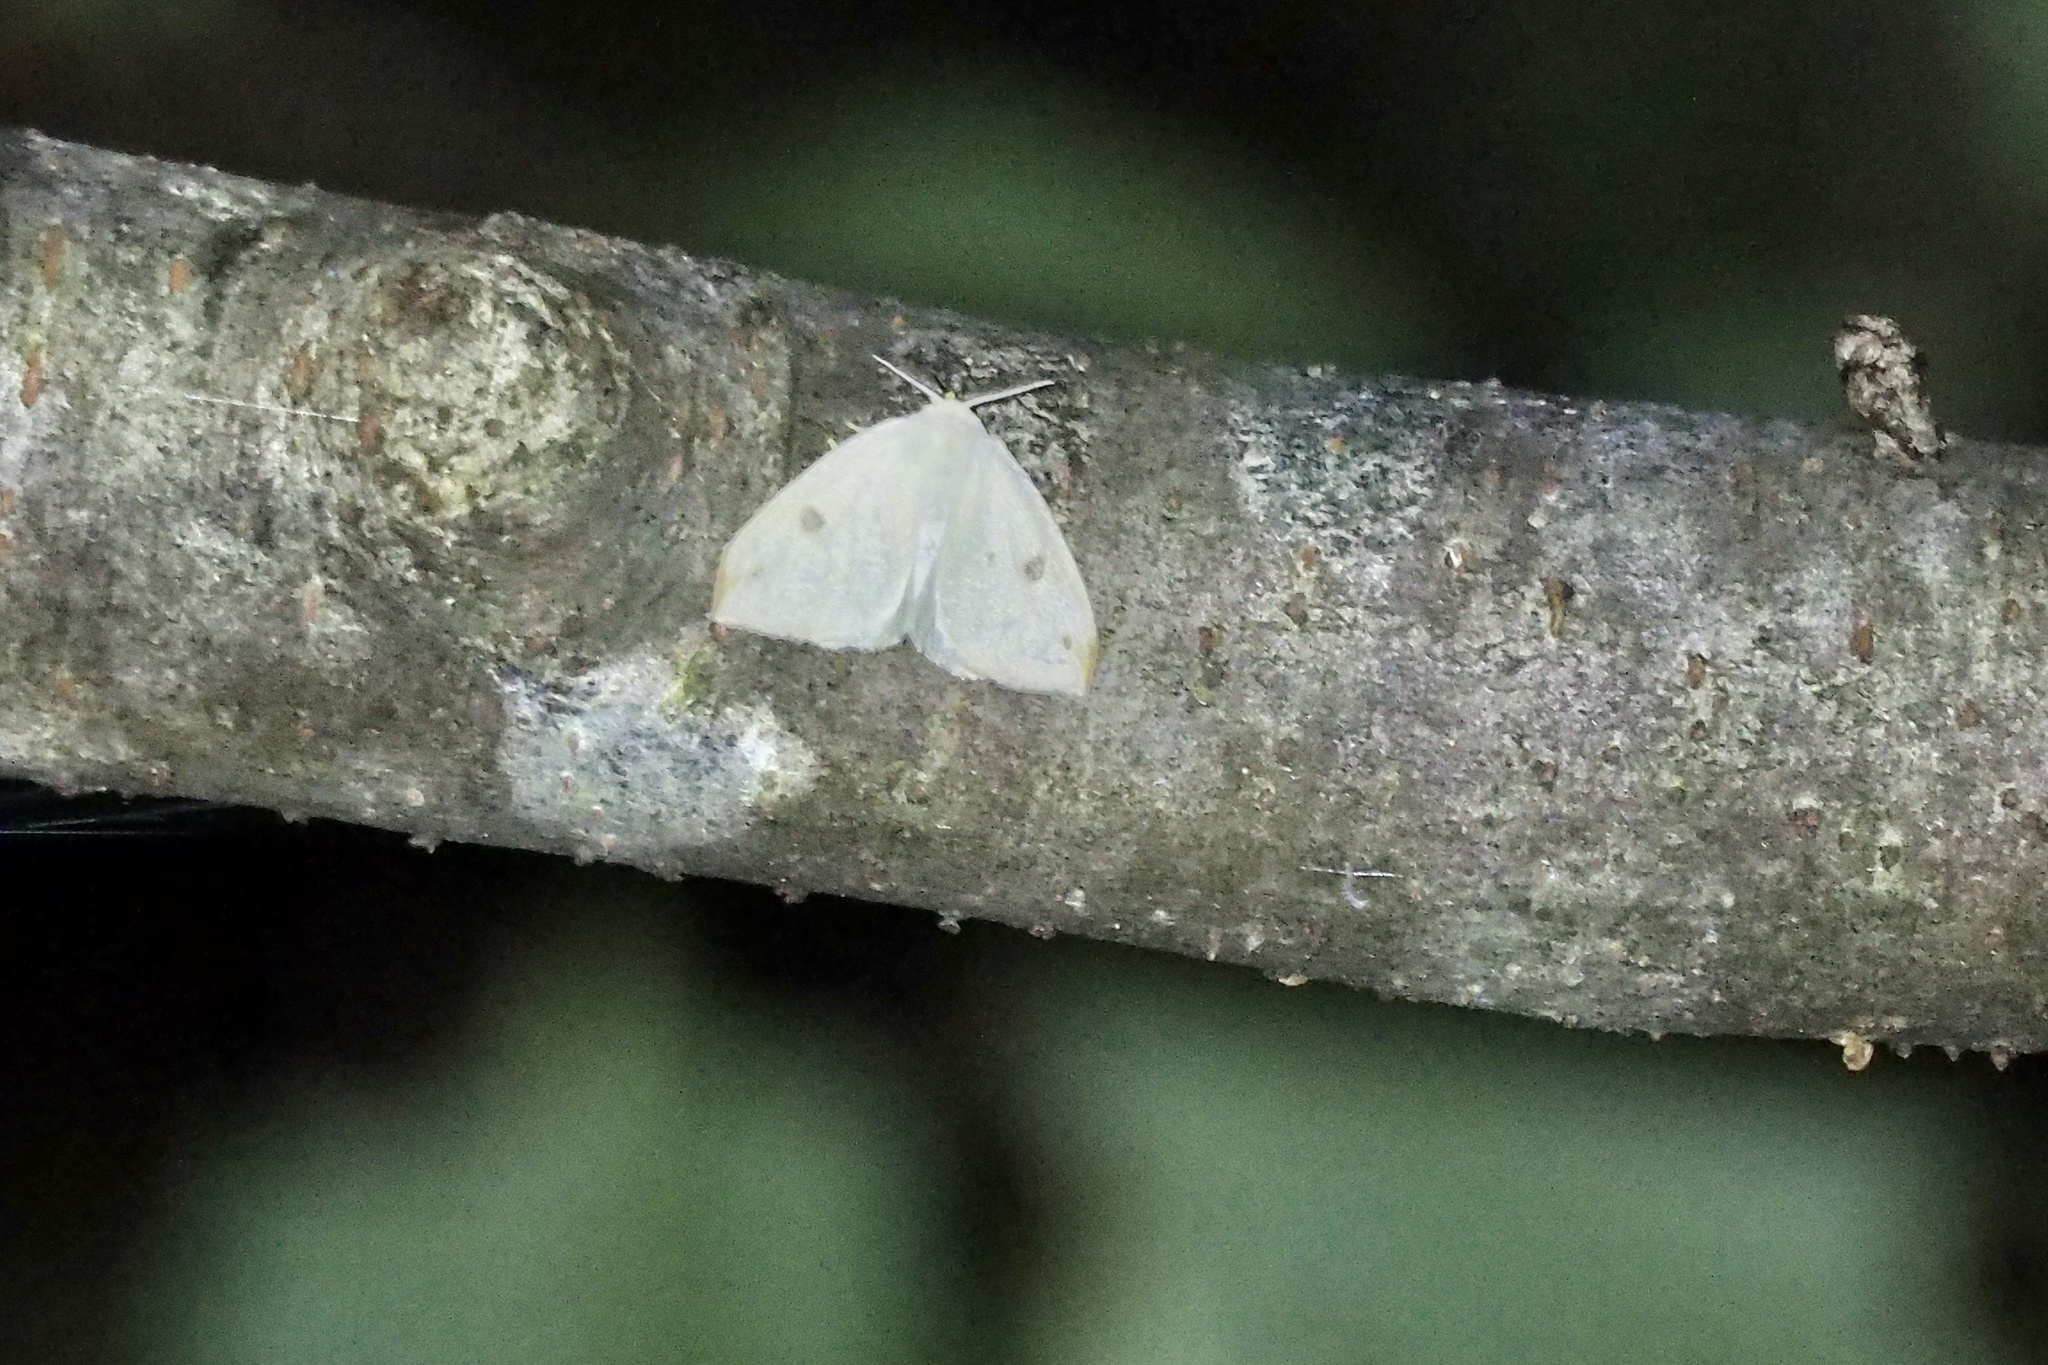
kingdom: Animalia
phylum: Arthropoda
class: Insecta
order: Lepidoptera
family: Erebidae
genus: Topomesoides
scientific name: Topomesoides jonasii
